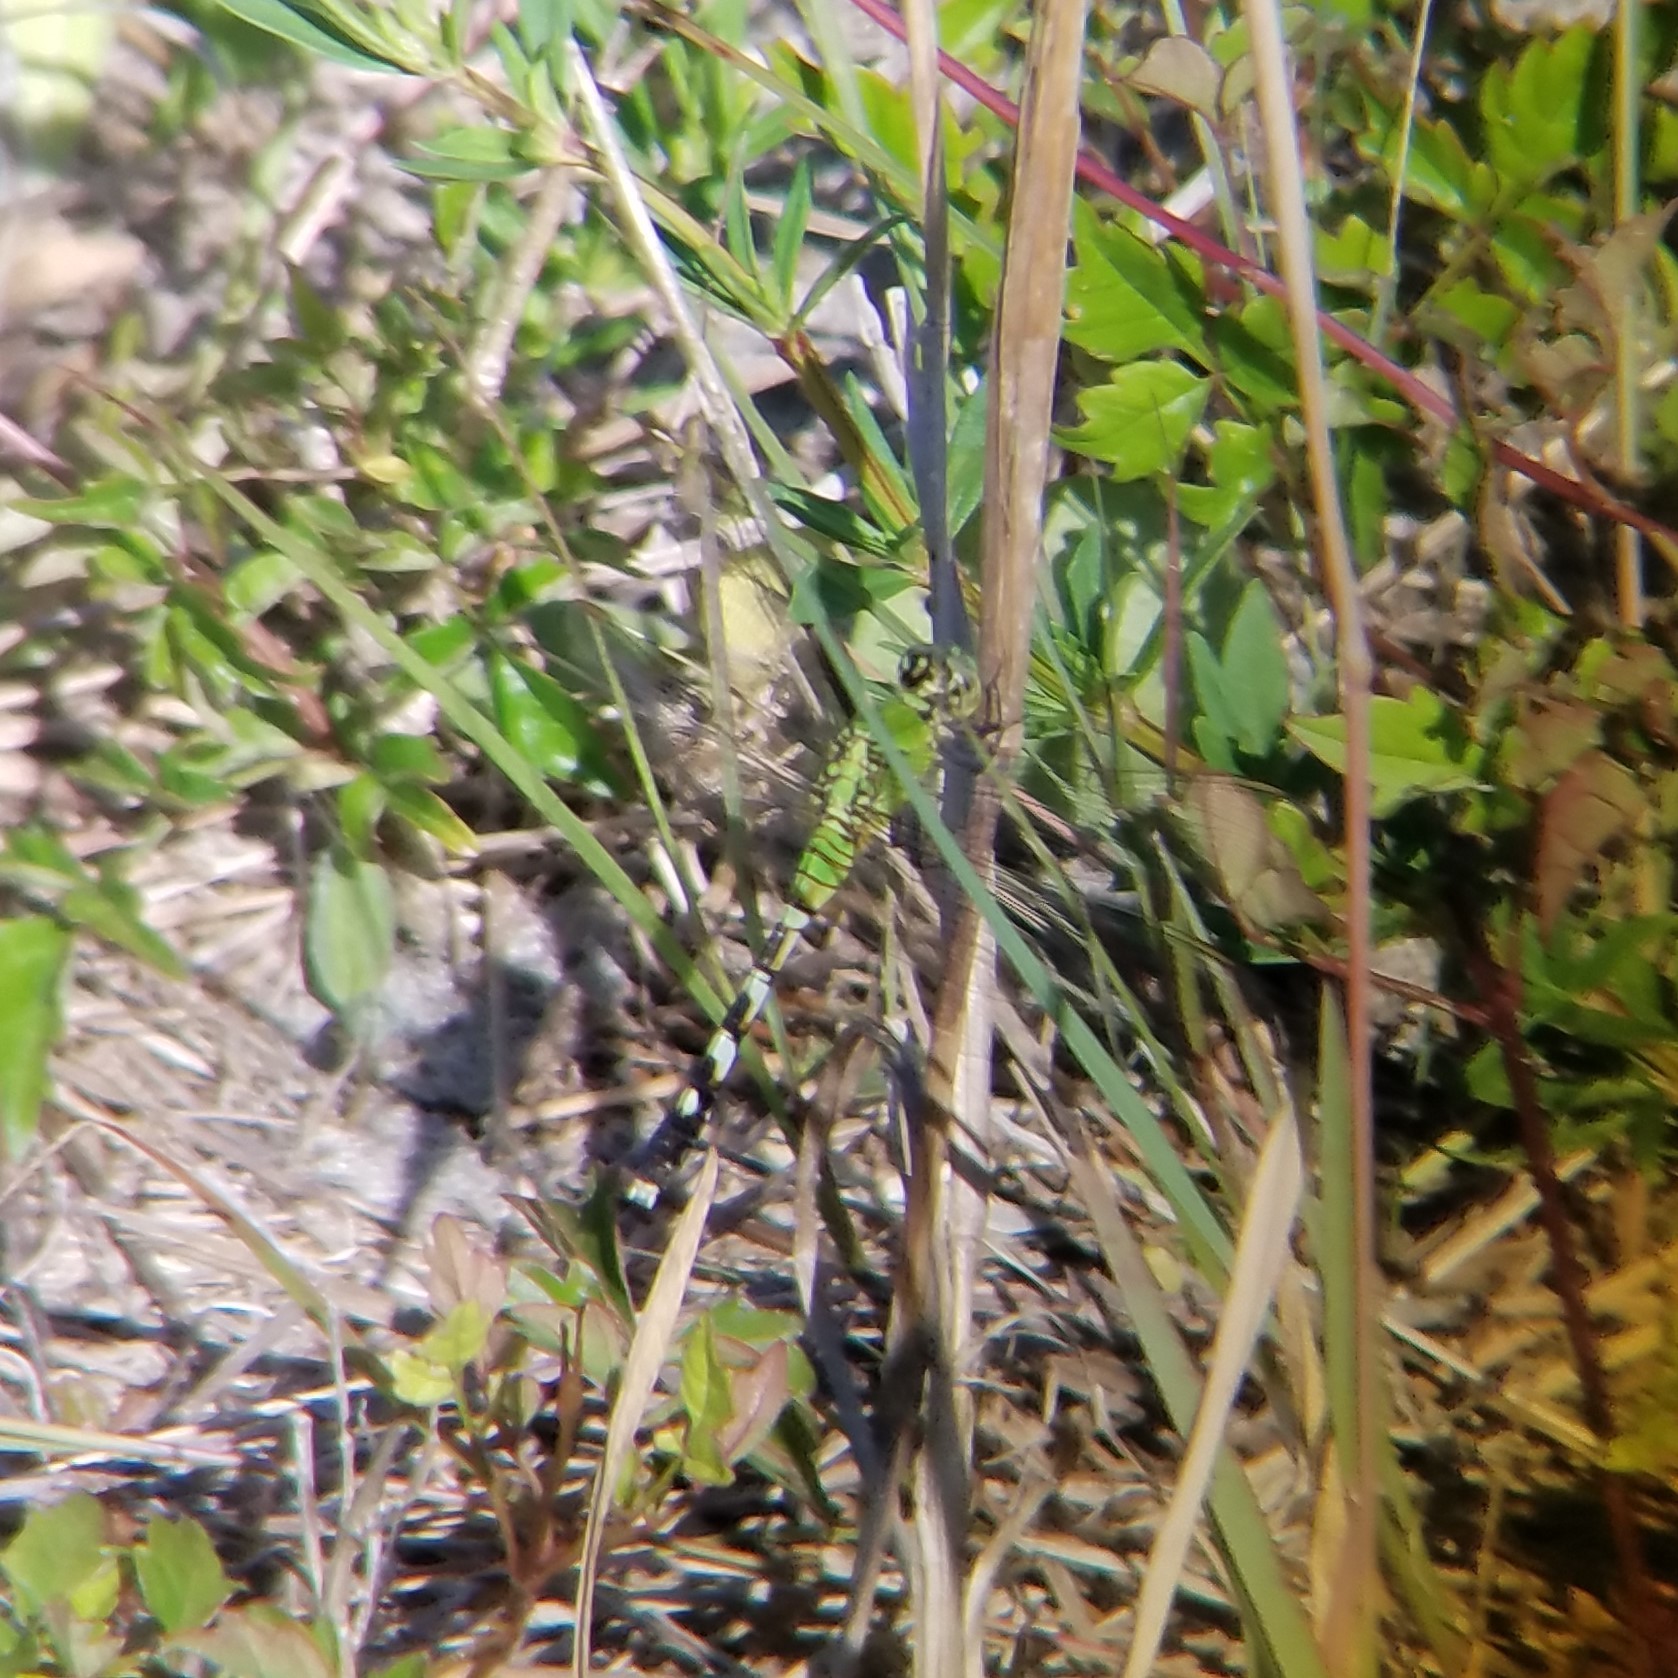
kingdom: Animalia
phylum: Arthropoda
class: Insecta
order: Odonata
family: Libellulidae
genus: Erythemis
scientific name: Erythemis simplicicollis
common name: Eastern pondhawk
